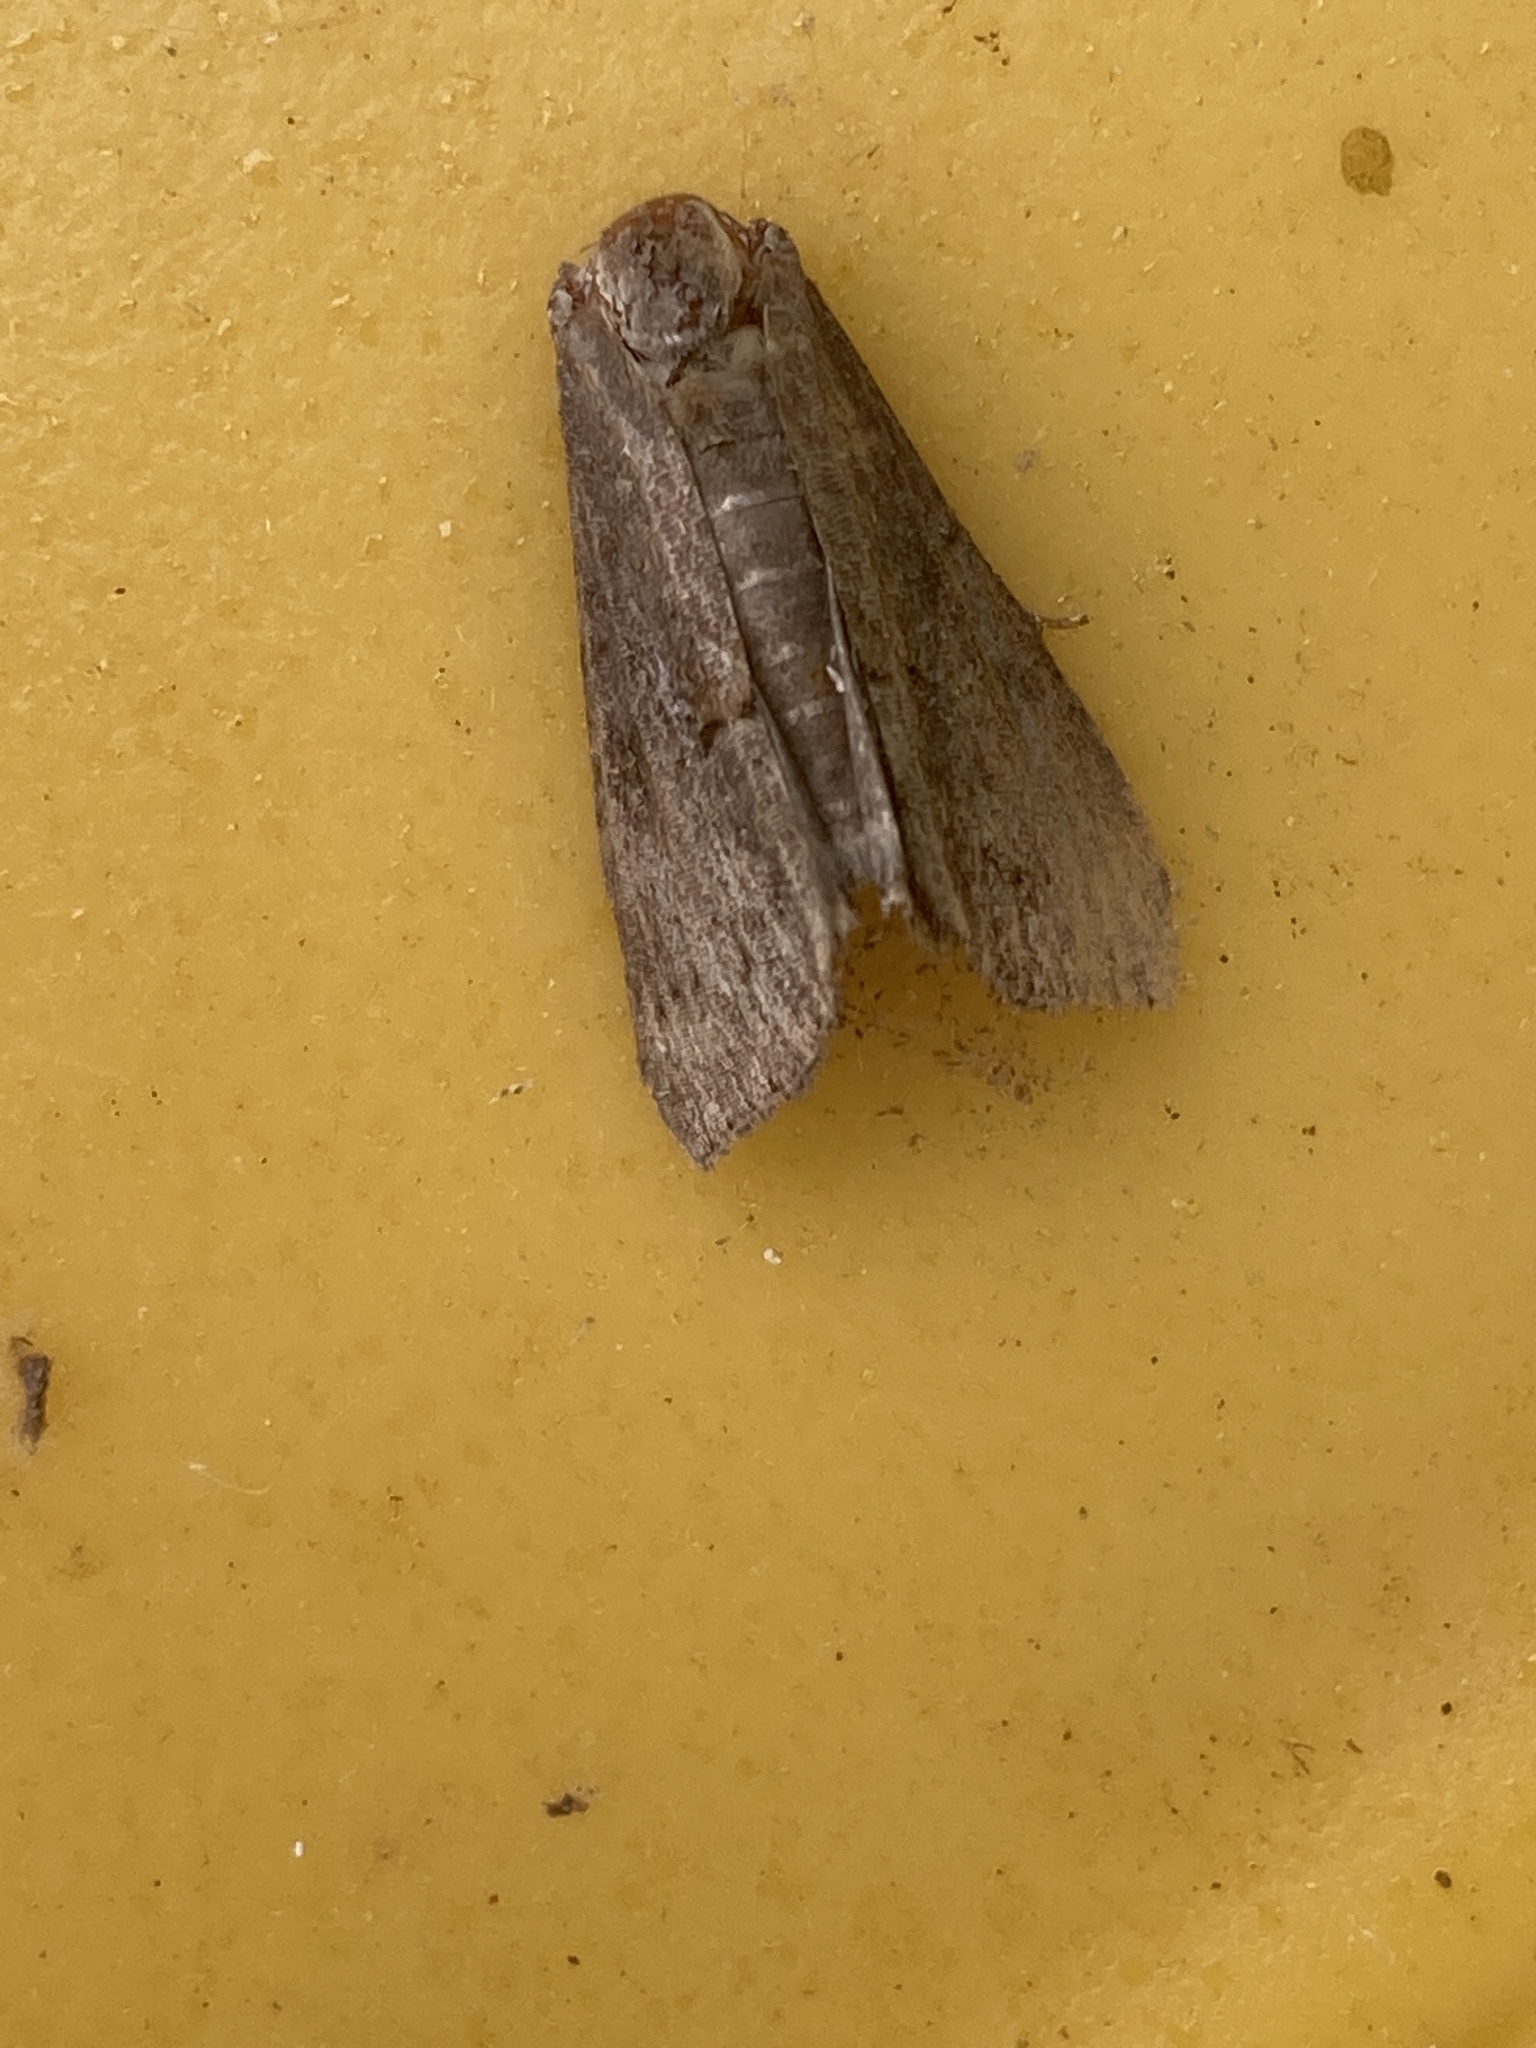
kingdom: Animalia
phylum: Arthropoda
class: Insecta
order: Lepidoptera
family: Erebidae
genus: Hypena
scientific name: Hypena scabra
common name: Green cloverworm
